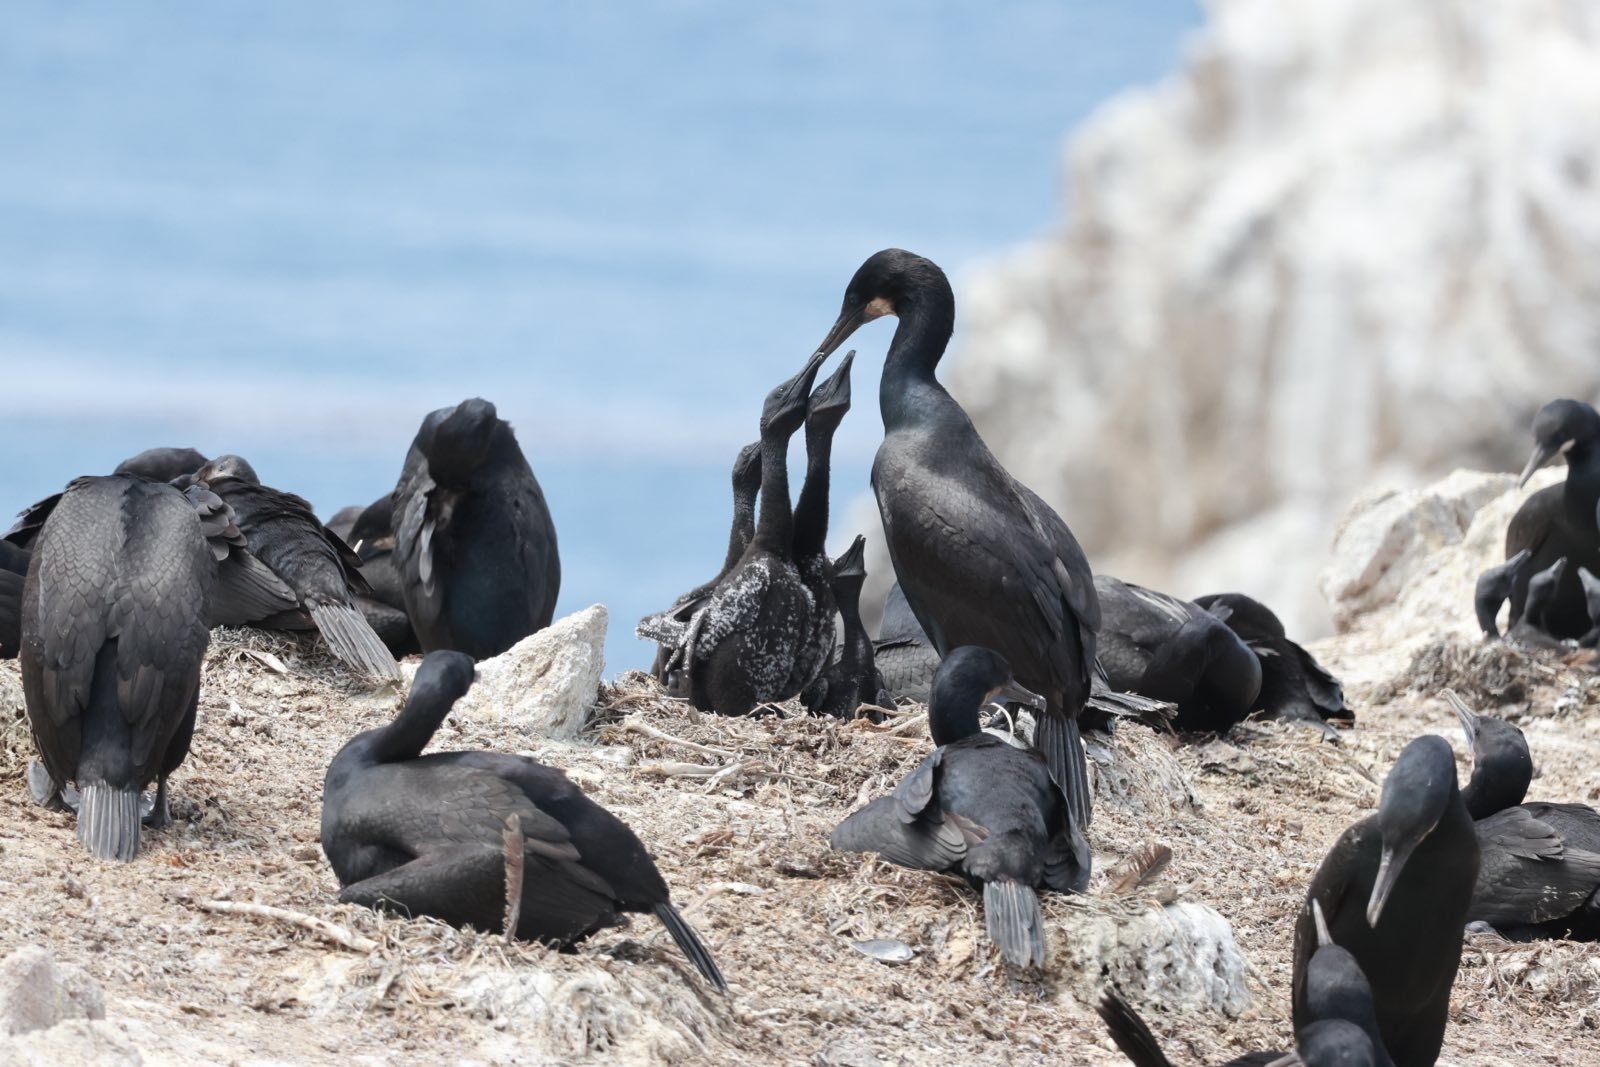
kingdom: Animalia
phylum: Chordata
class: Aves
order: Suliformes
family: Phalacrocoracidae
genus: Urile
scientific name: Urile penicillatus
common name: Brandt's cormorant
